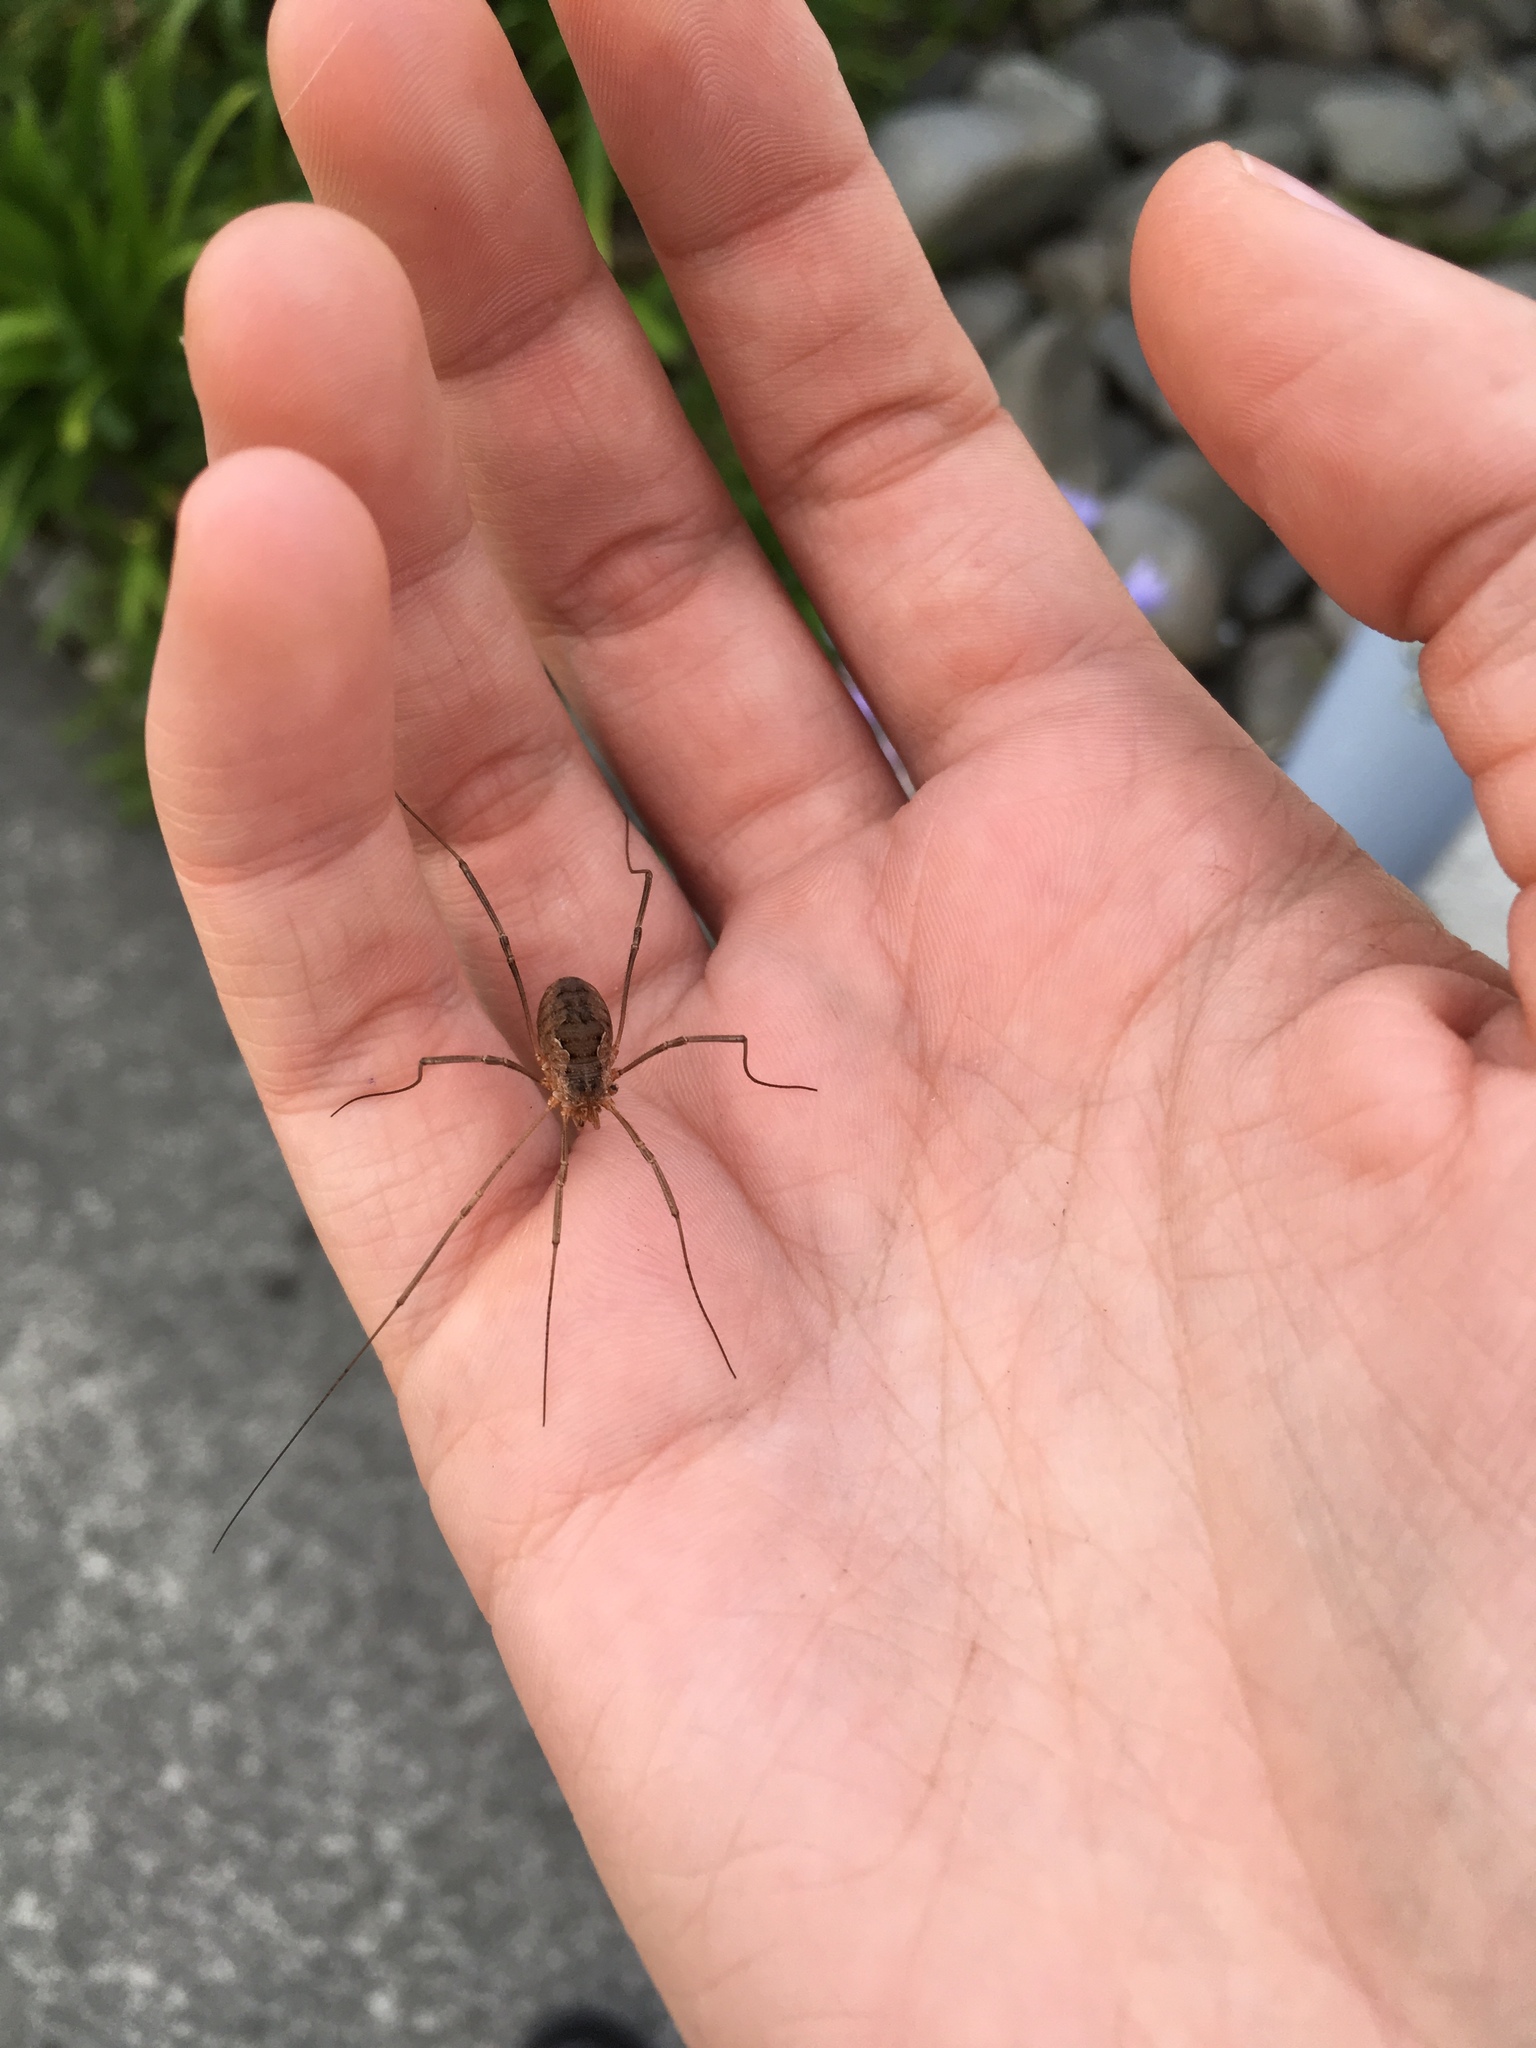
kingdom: Animalia
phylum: Arthropoda
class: Arachnida
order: Opiliones
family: Phalangiidae
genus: Phalangium
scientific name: Phalangium opilio
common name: Daddy longleg
